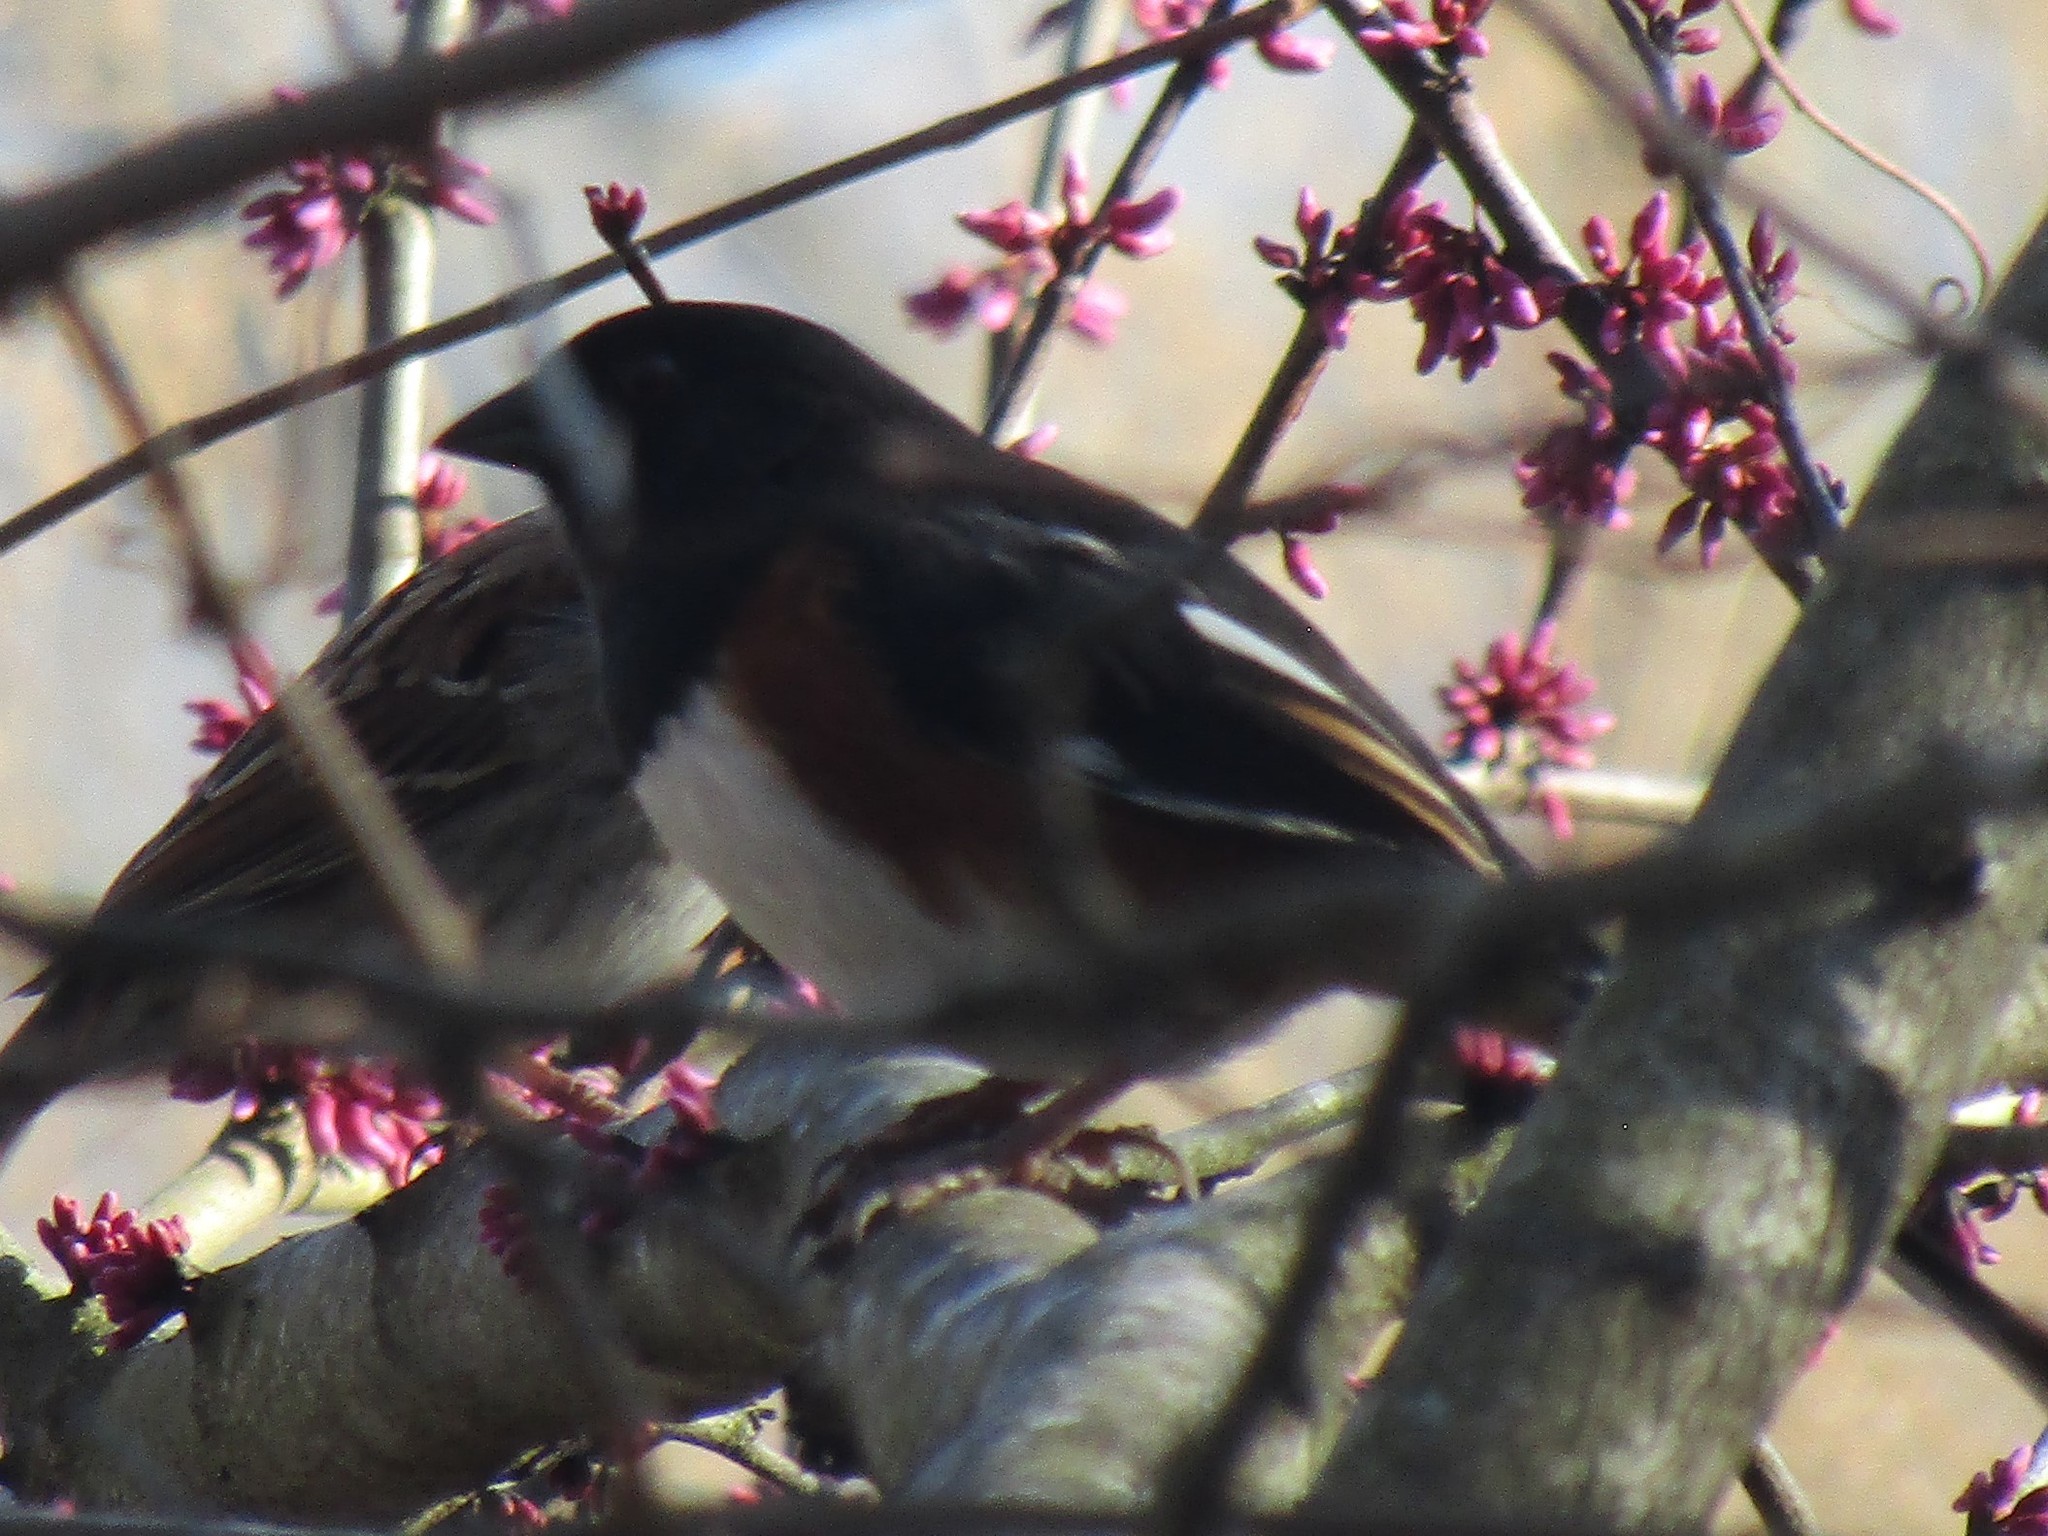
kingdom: Animalia
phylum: Chordata
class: Aves
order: Passeriformes
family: Passerellidae
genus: Pipilo
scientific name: Pipilo erythrophthalmus
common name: Eastern towhee
